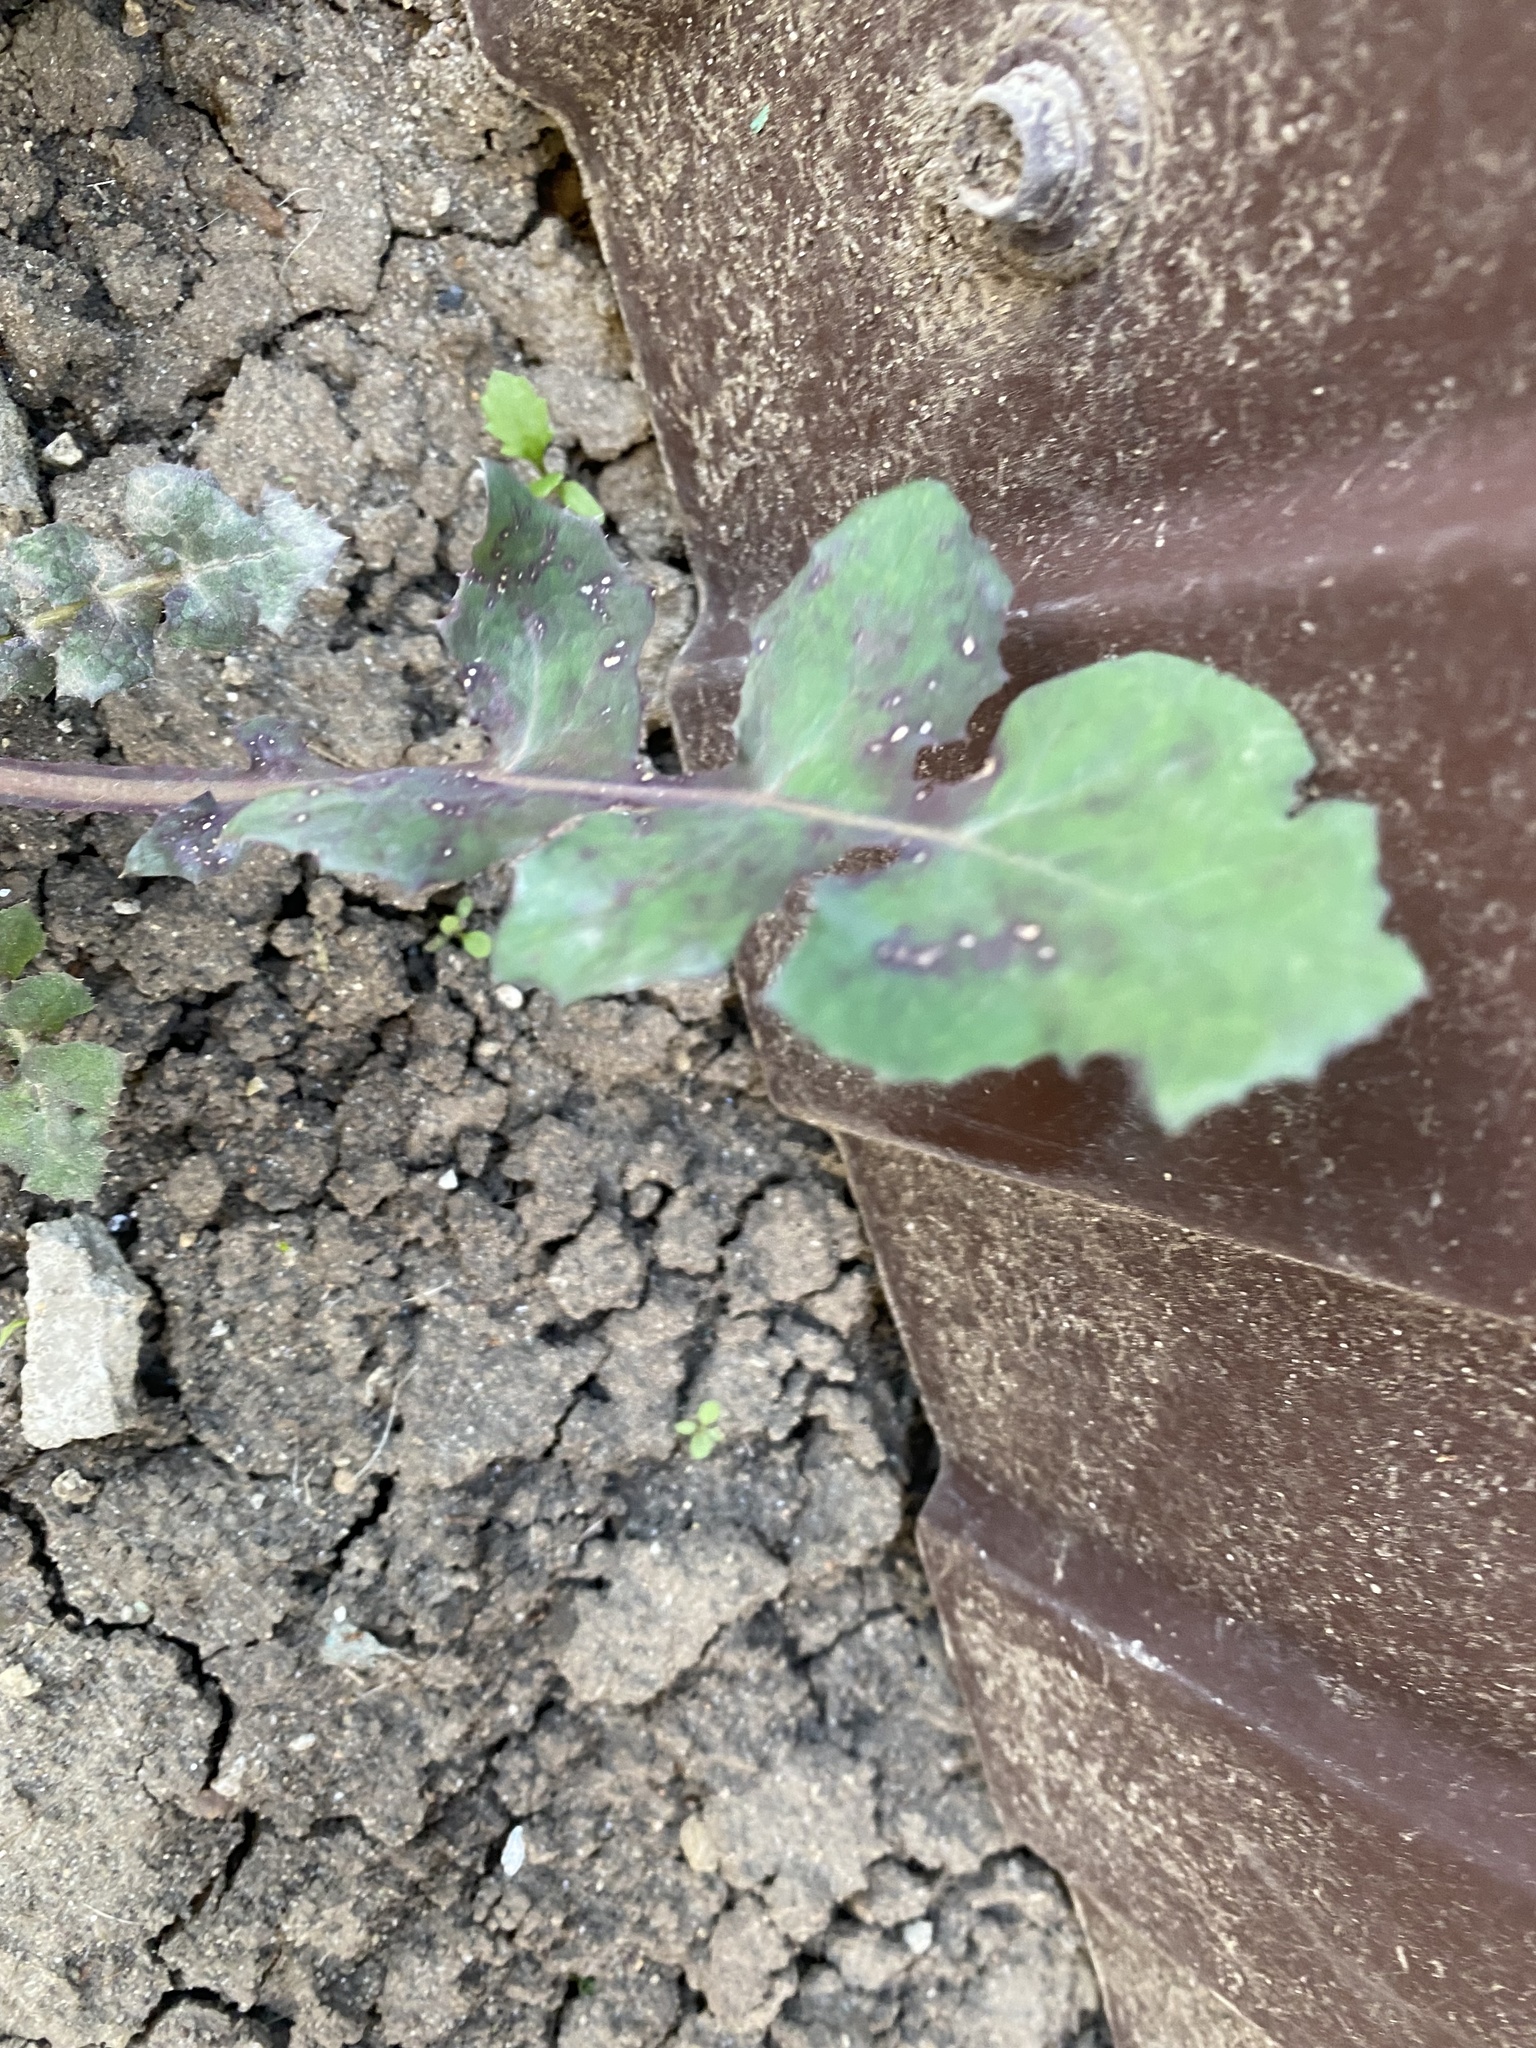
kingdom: Plantae
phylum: Tracheophyta
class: Magnoliopsida
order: Asterales
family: Asteraceae
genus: Sonchus
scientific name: Sonchus oleraceus
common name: Common sowthistle
